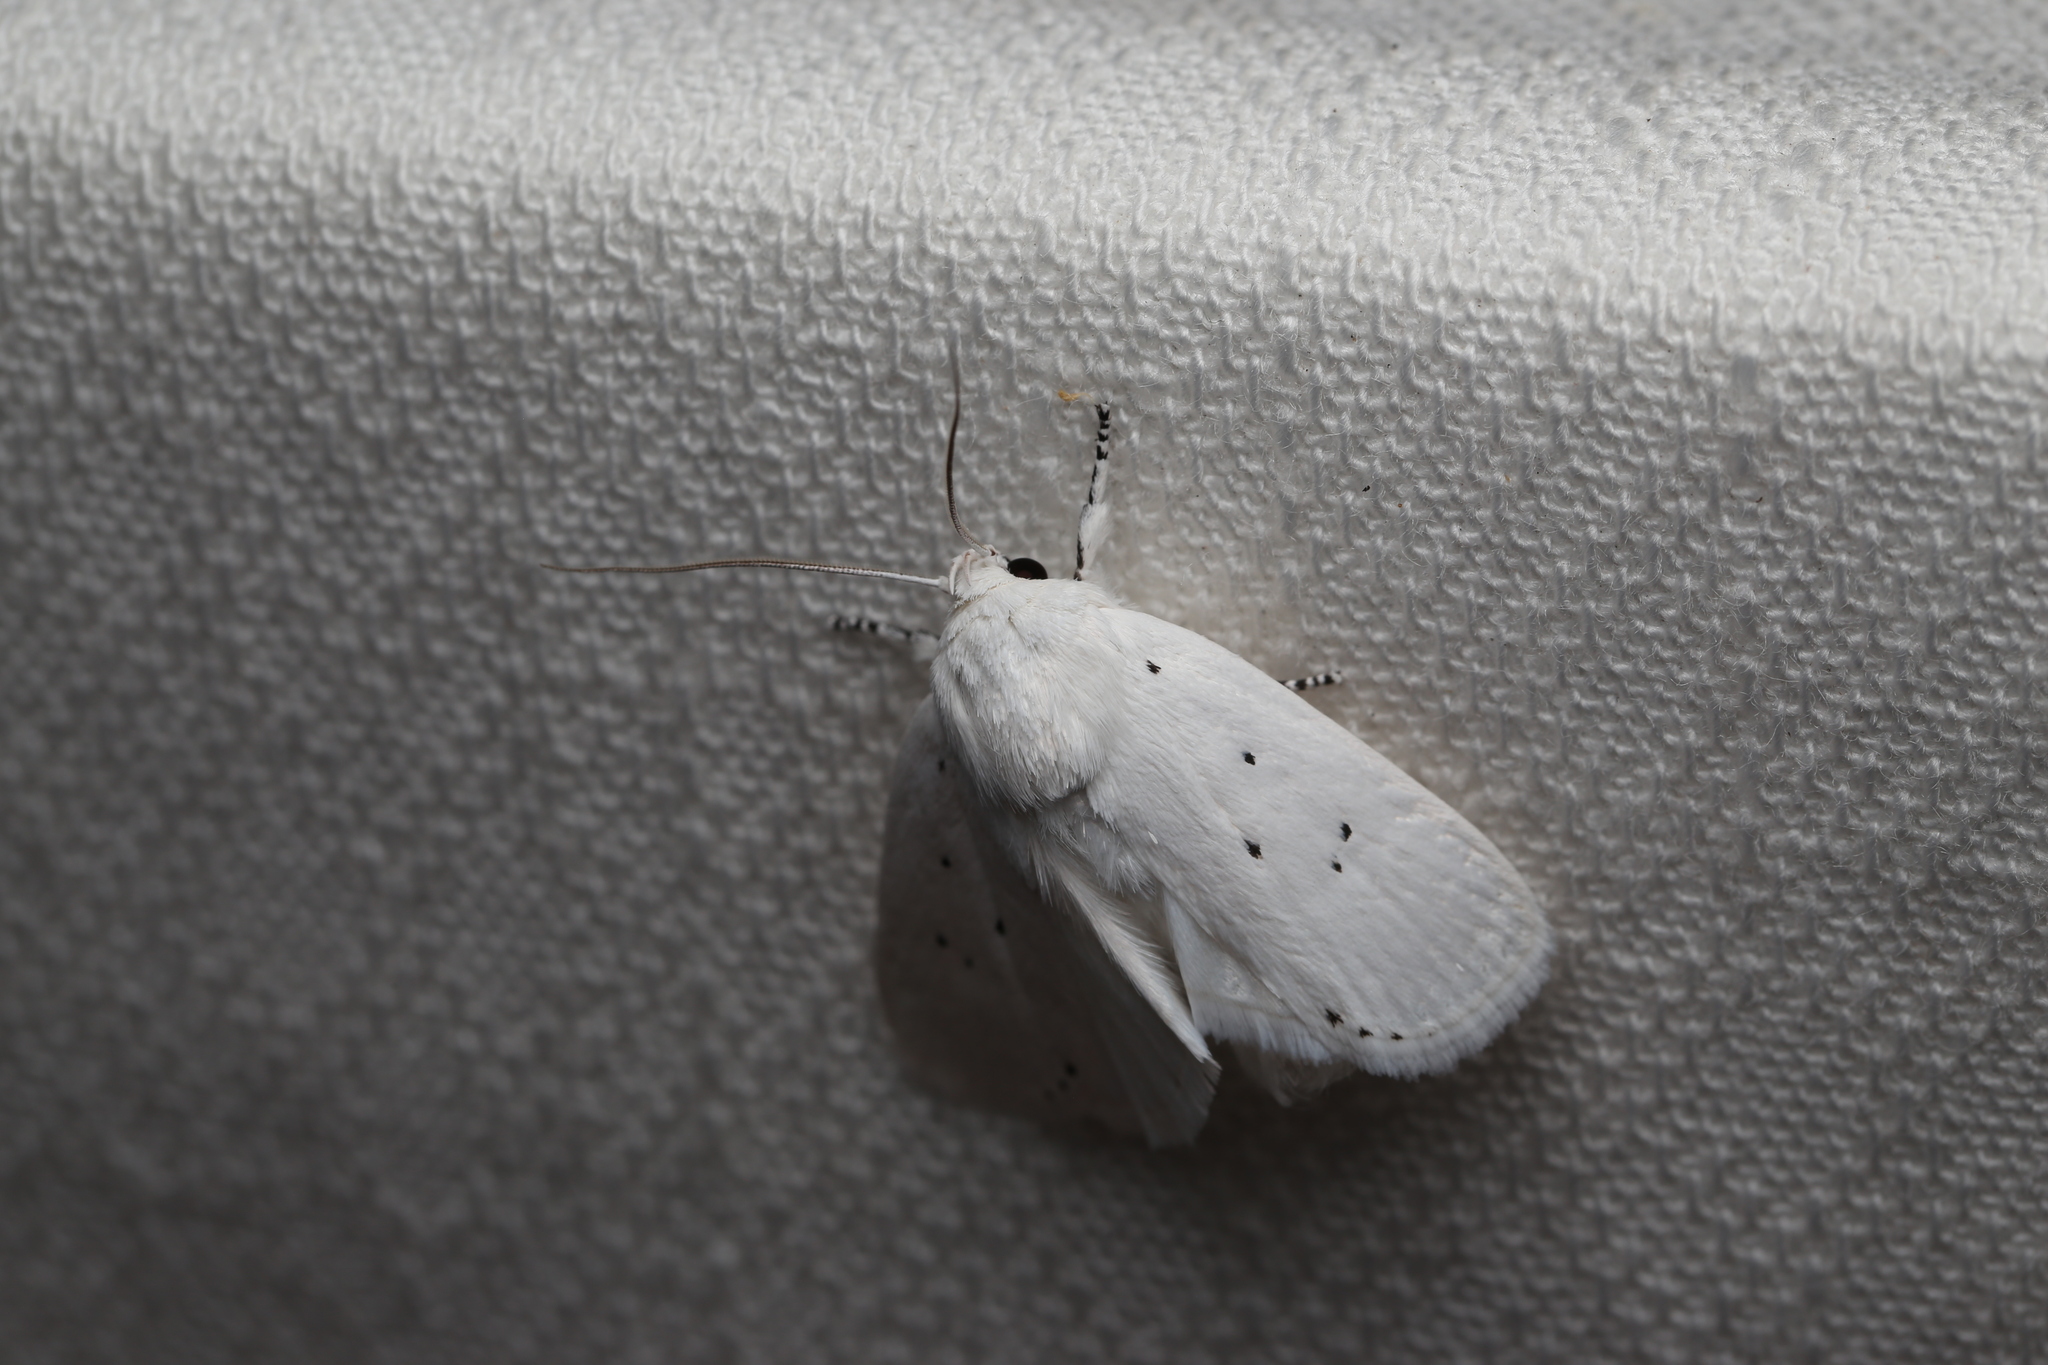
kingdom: Animalia
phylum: Arthropoda
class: Insecta
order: Lepidoptera
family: Xyloryctidae
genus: Cryptophasa
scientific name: Cryptophasa lasiocosma
